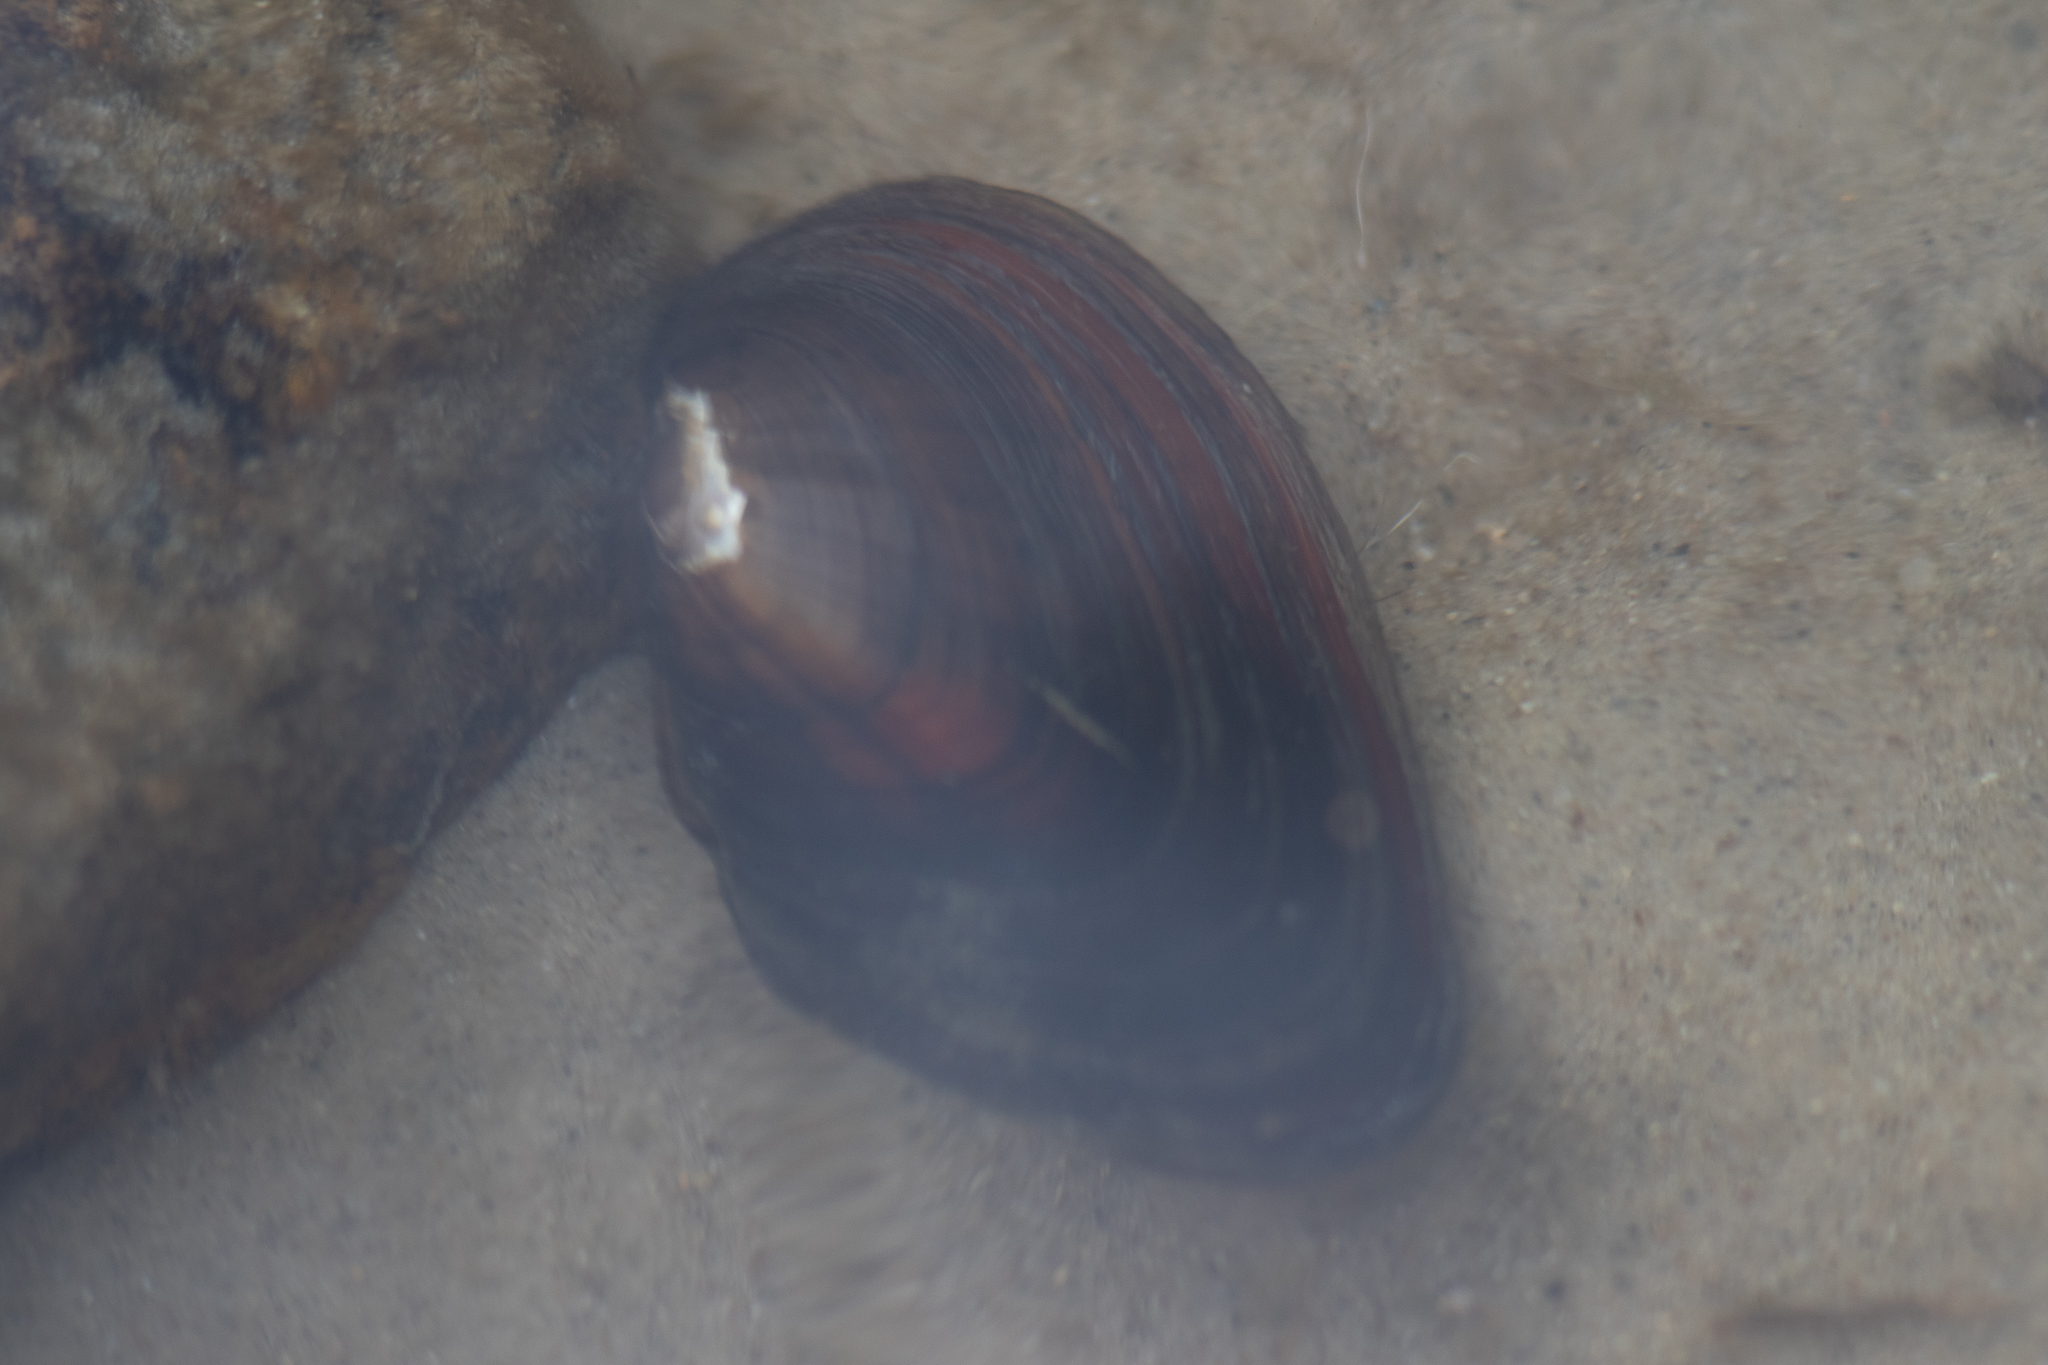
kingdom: Animalia
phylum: Mollusca
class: Bivalvia
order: Unionida
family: Unionidae
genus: Elliptio
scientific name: Elliptio complanata
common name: Eastern elliptio
